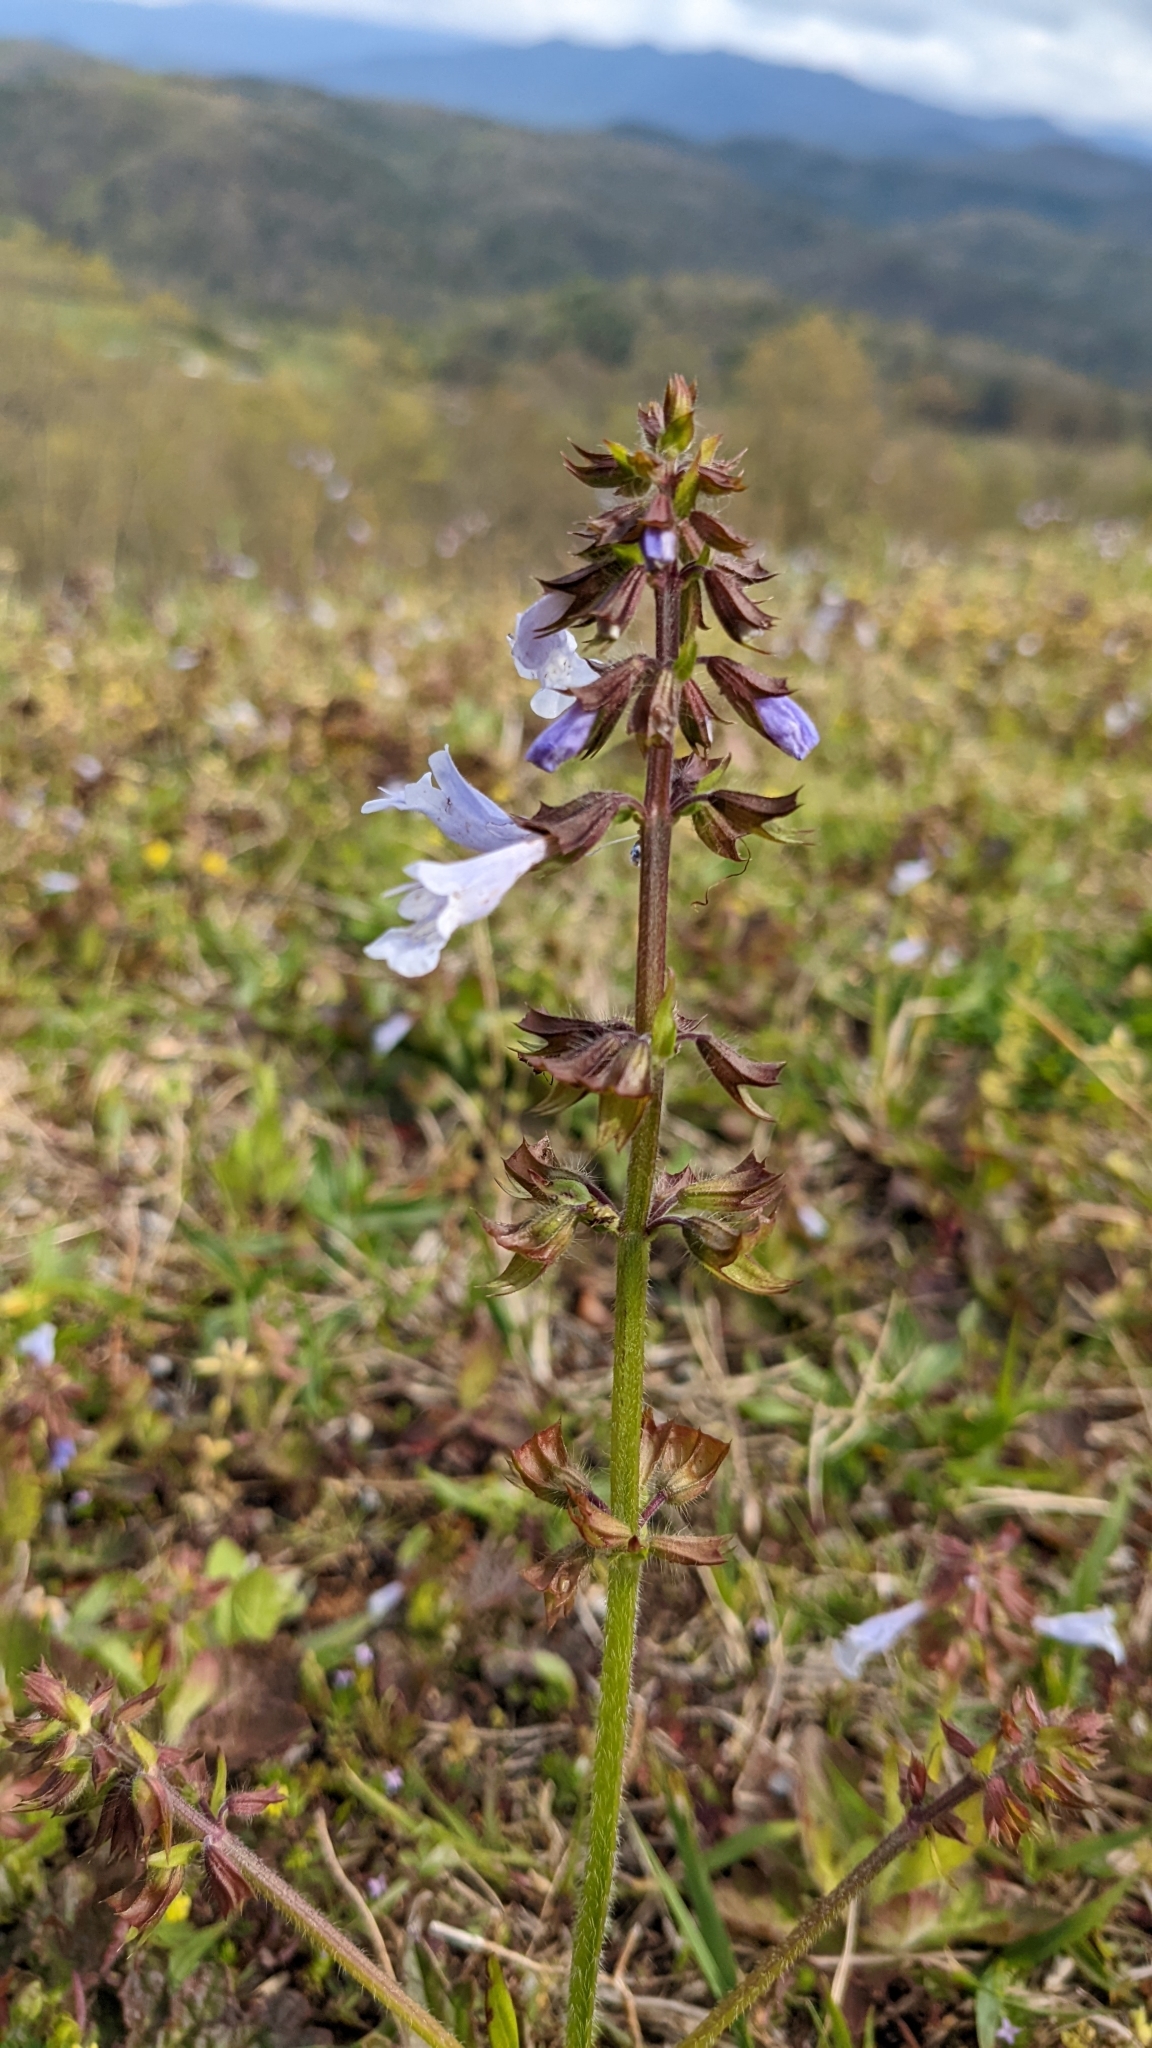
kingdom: Plantae
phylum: Tracheophyta
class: Magnoliopsida
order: Lamiales
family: Lamiaceae
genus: Salvia
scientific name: Salvia lyrata
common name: Cancerweed
